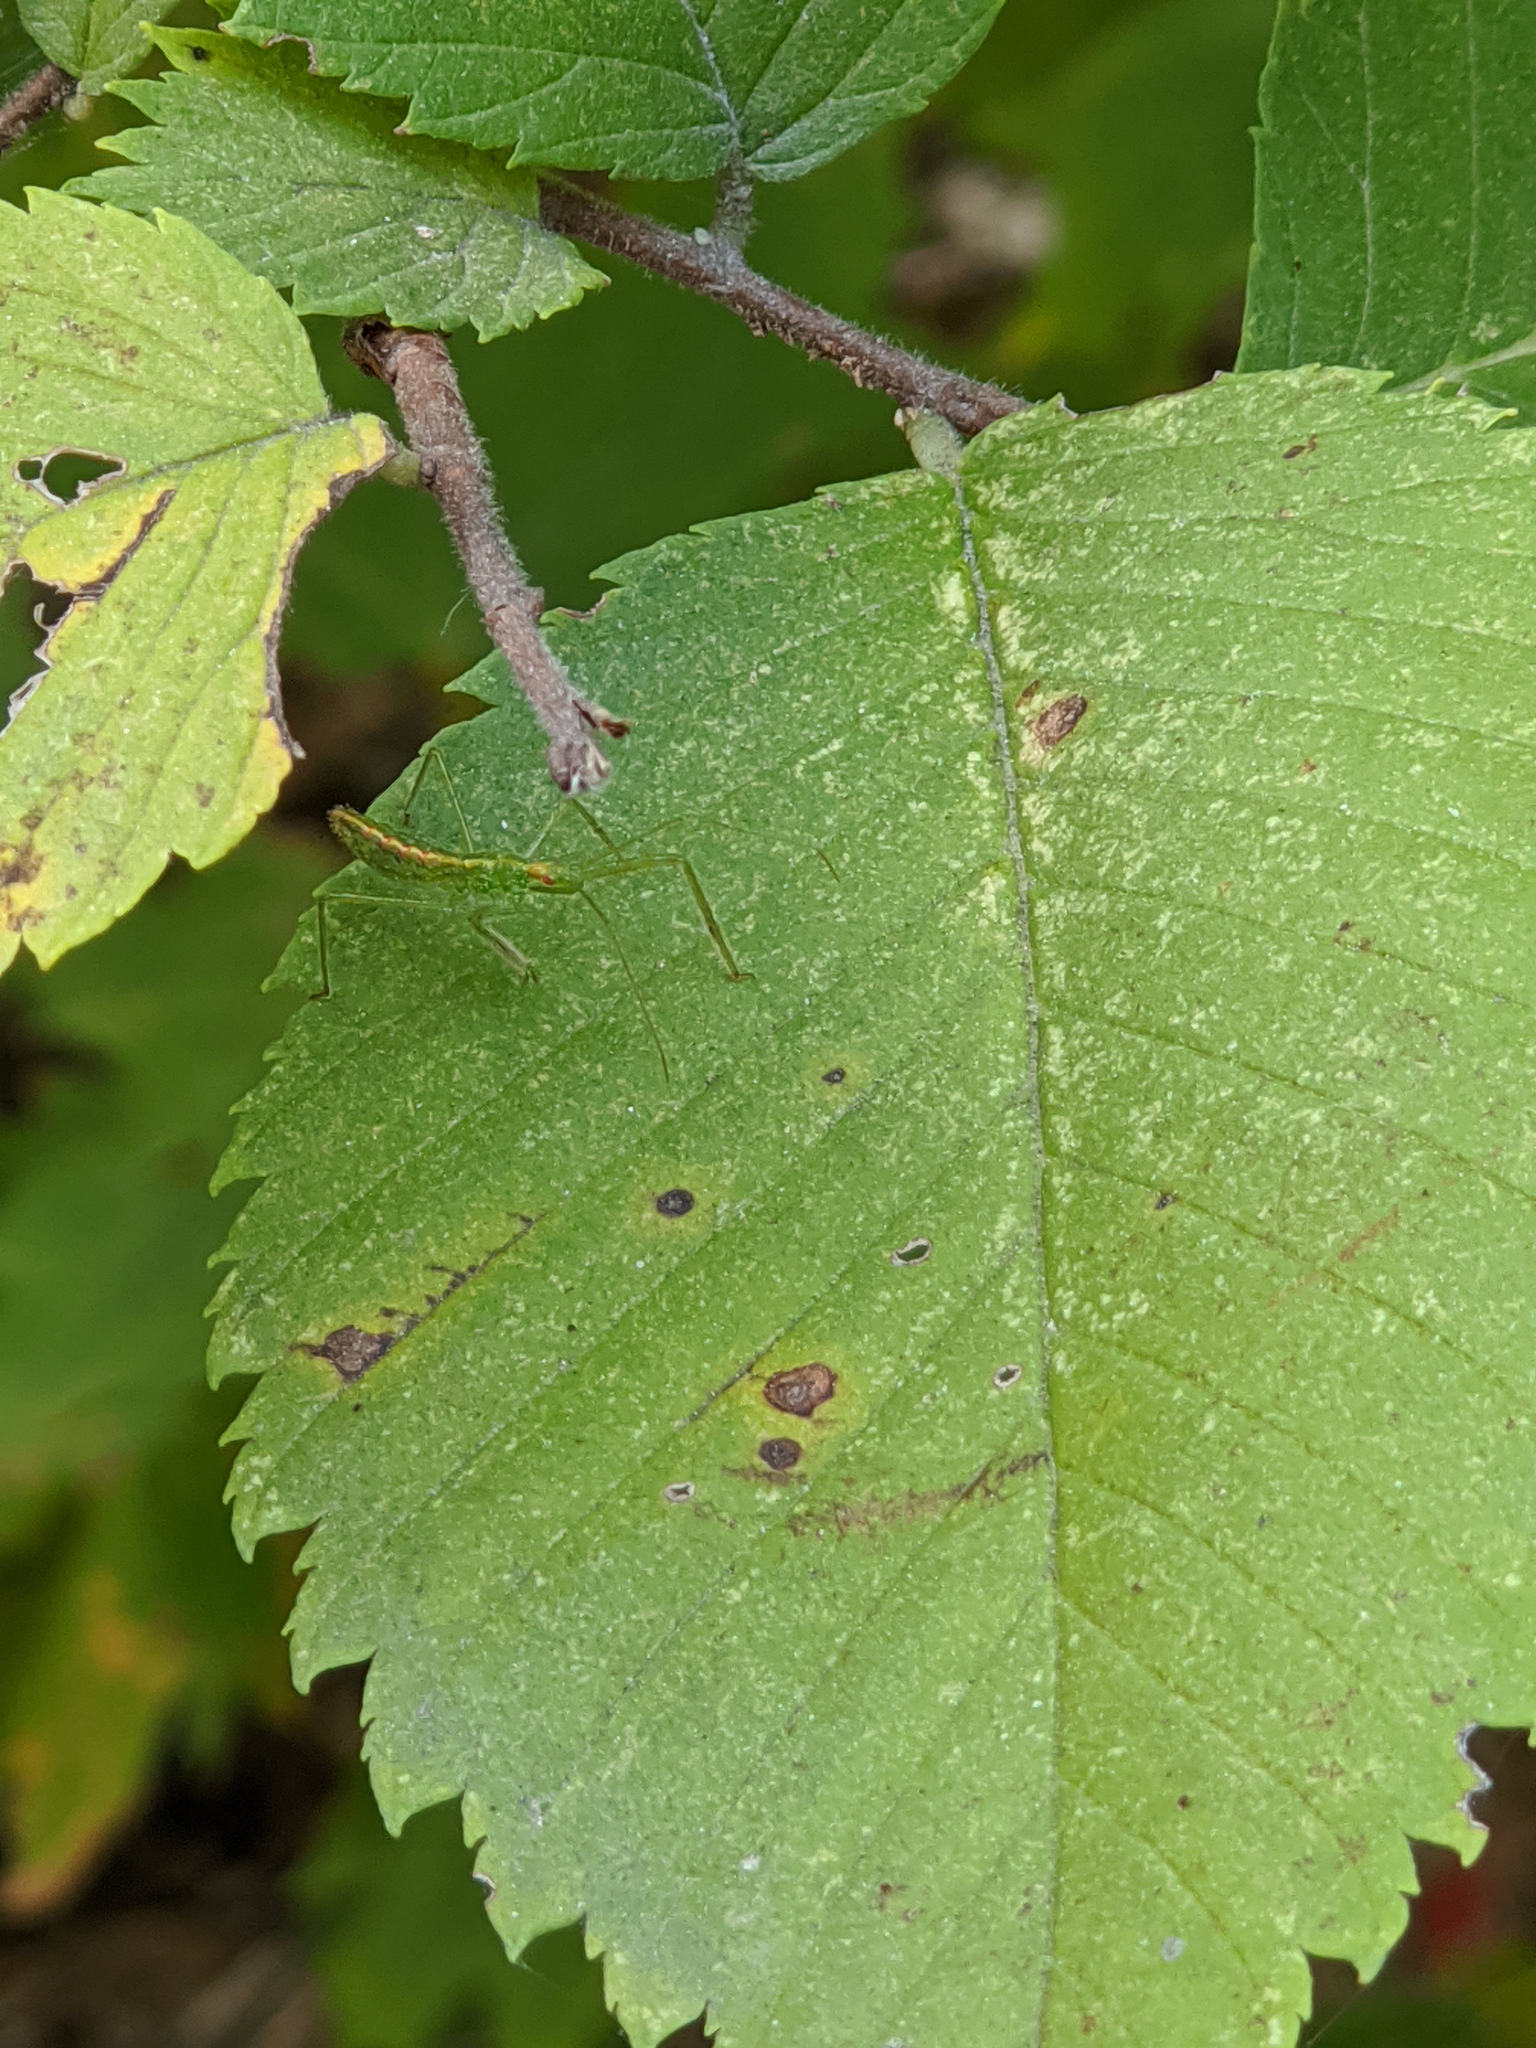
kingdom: Animalia
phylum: Arthropoda
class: Insecta
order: Hemiptera
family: Reduviidae
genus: Zelus
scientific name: Zelus luridus
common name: Pale green assassin bug
